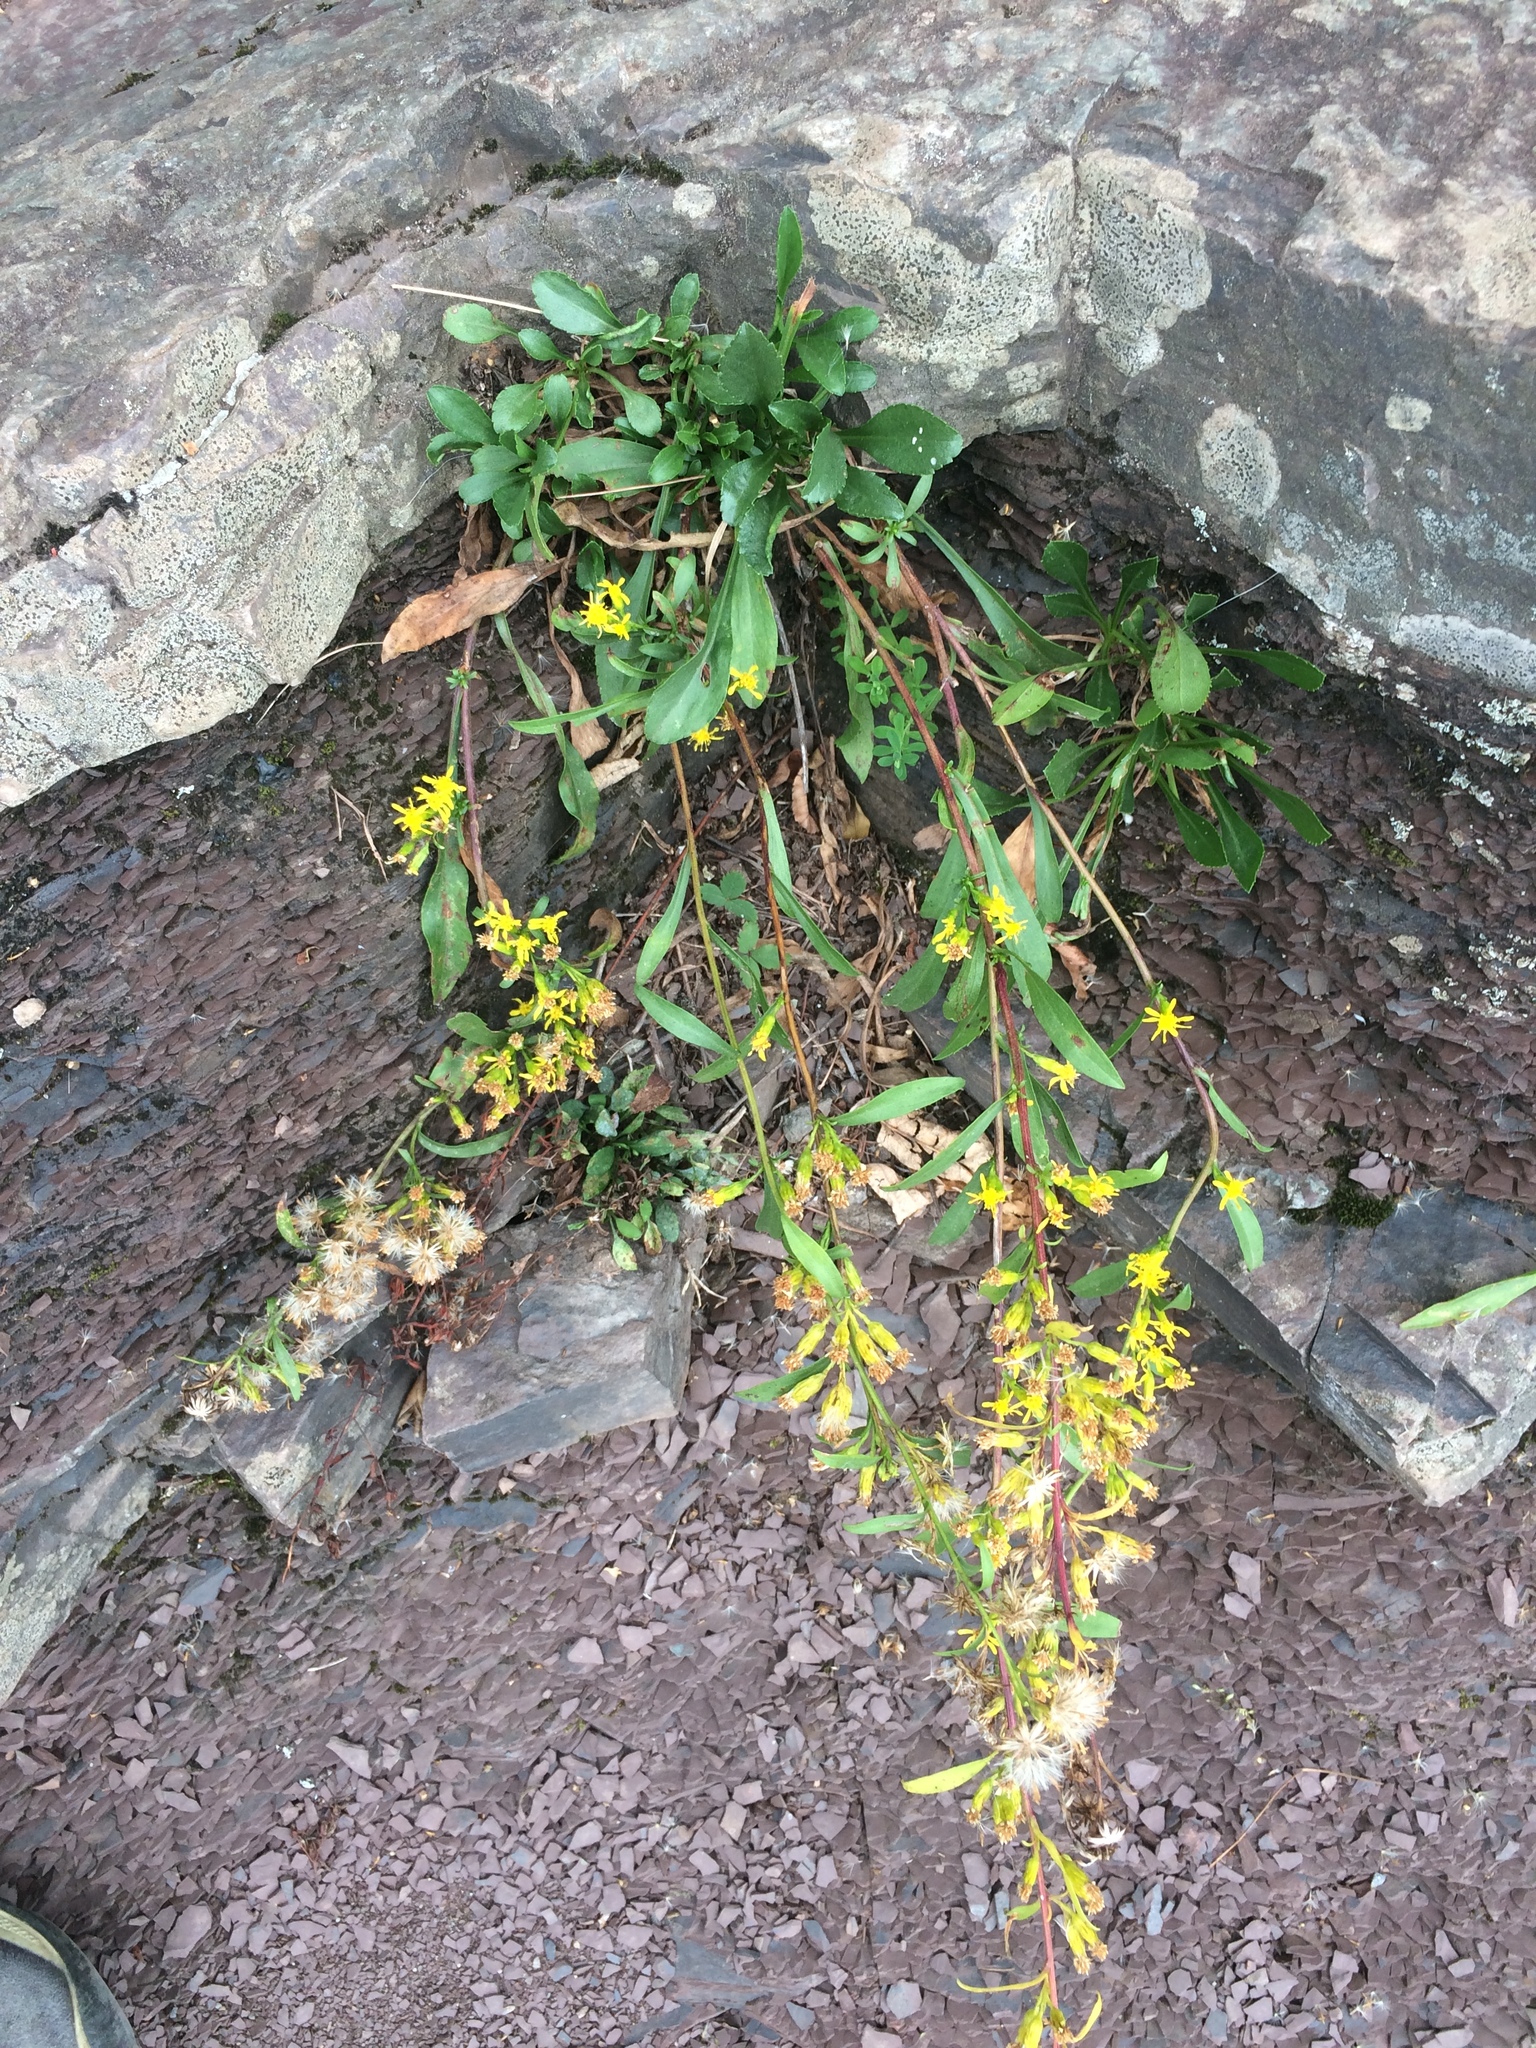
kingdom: Plantae
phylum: Tracheophyta
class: Magnoliopsida
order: Asterales
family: Asteraceae
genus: Solidago
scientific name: Solidago racemosa
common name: Lake ontario goldenrod
